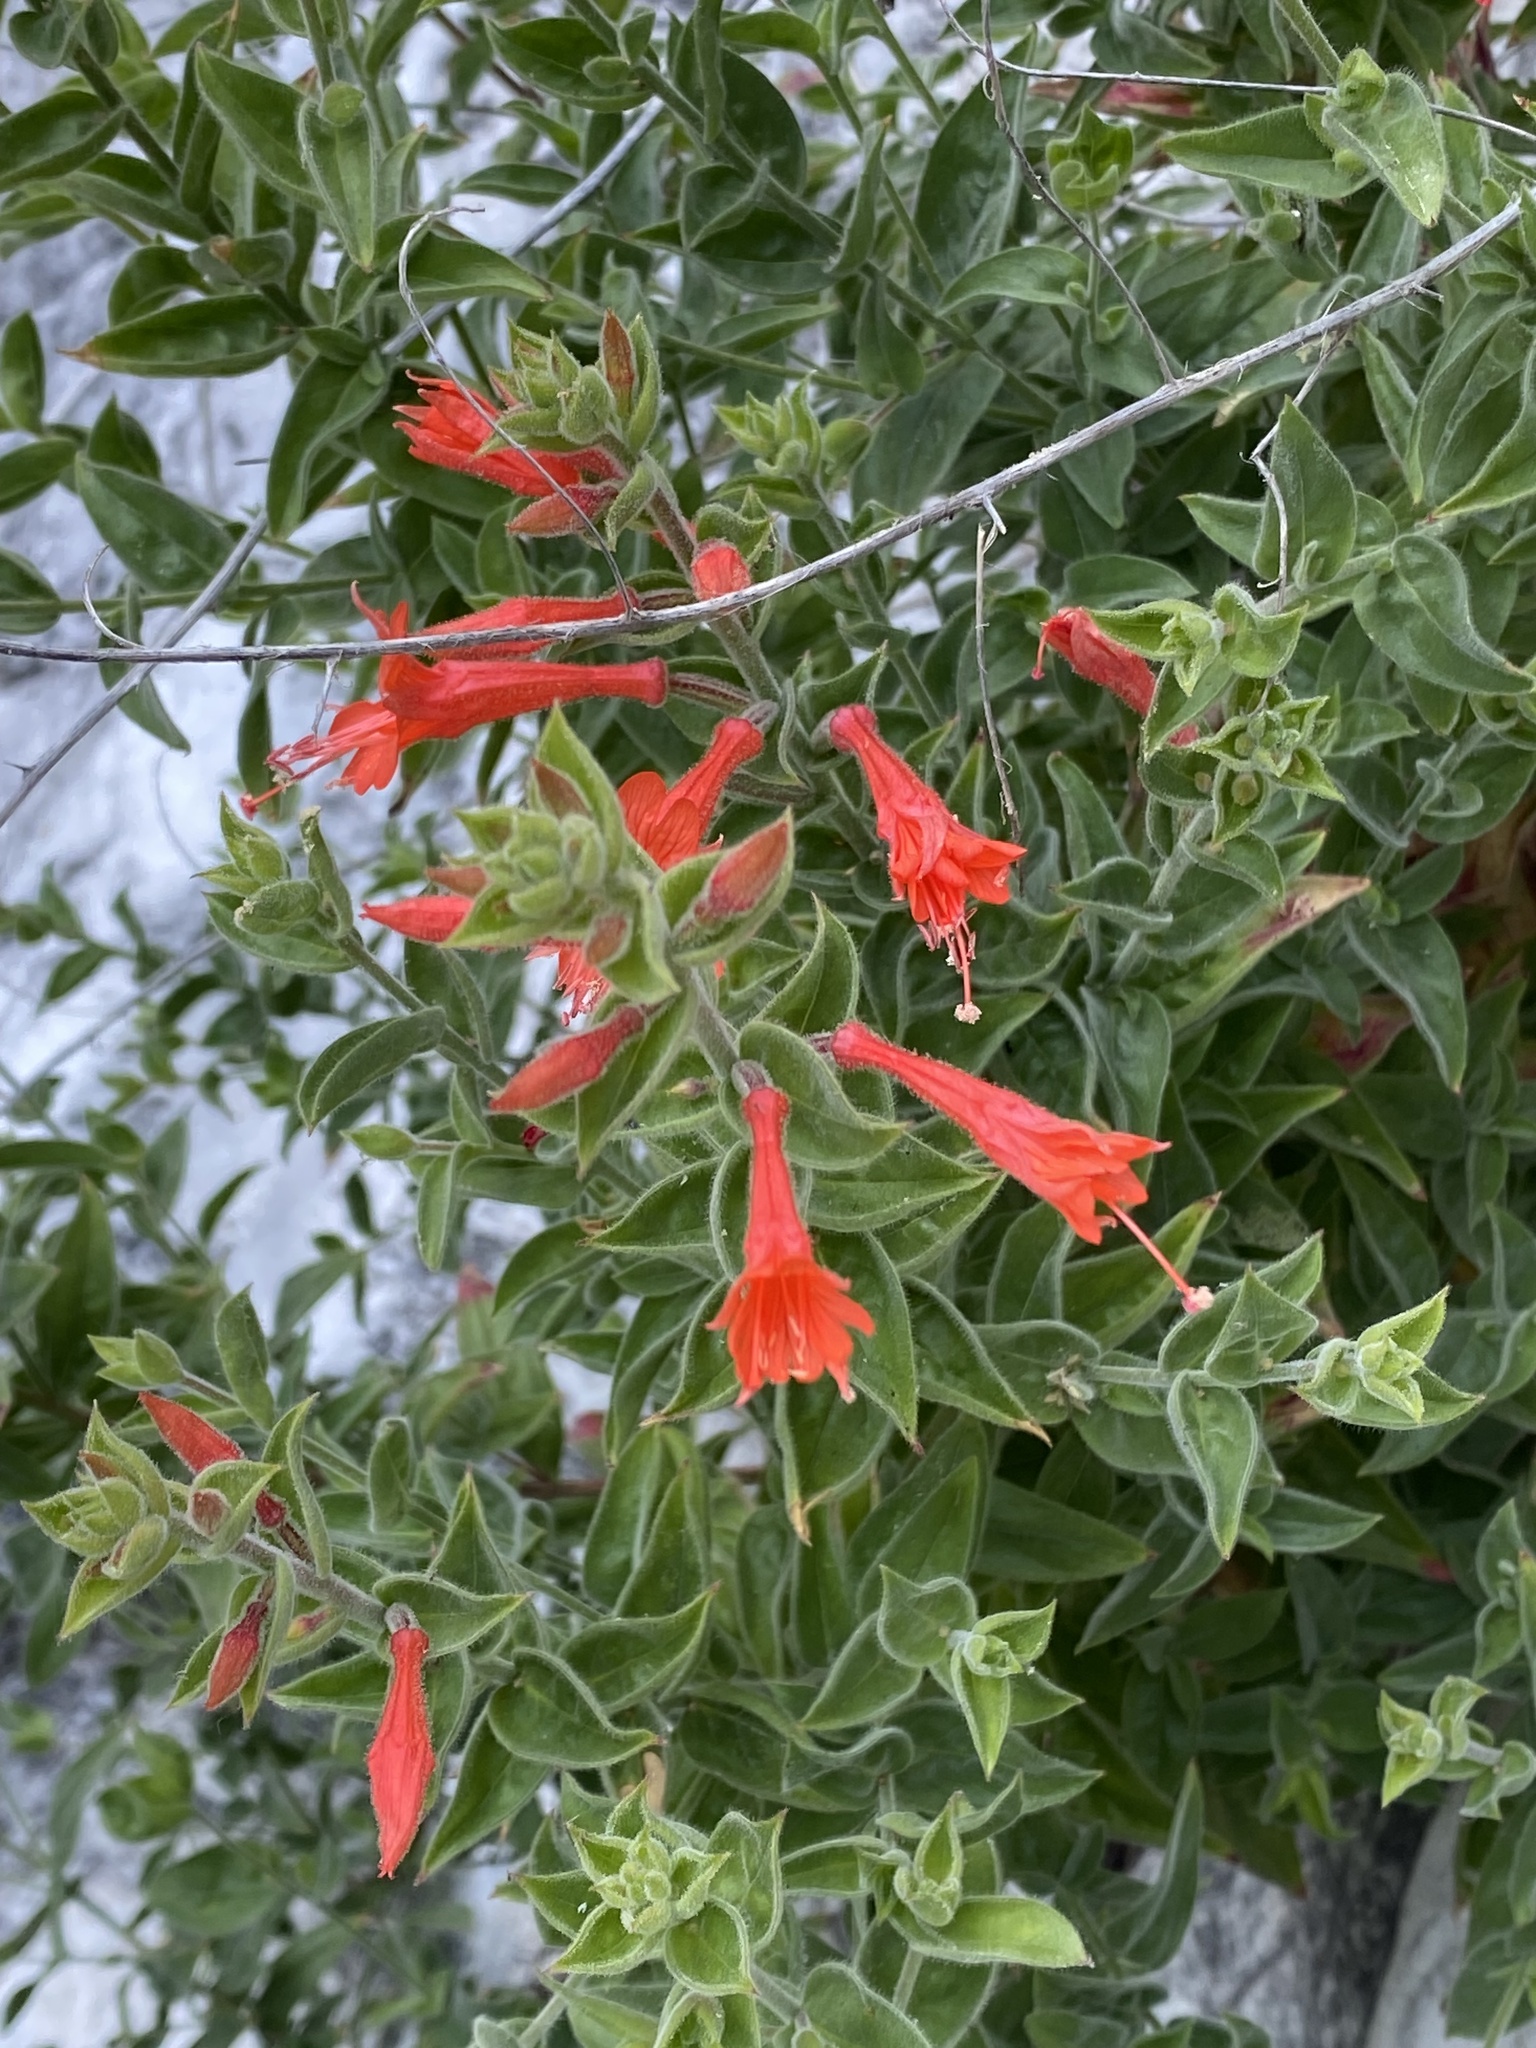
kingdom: Plantae
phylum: Tracheophyta
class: Magnoliopsida
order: Myrtales
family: Onagraceae
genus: Epilobium
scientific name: Epilobium canum
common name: California-fuchsia
